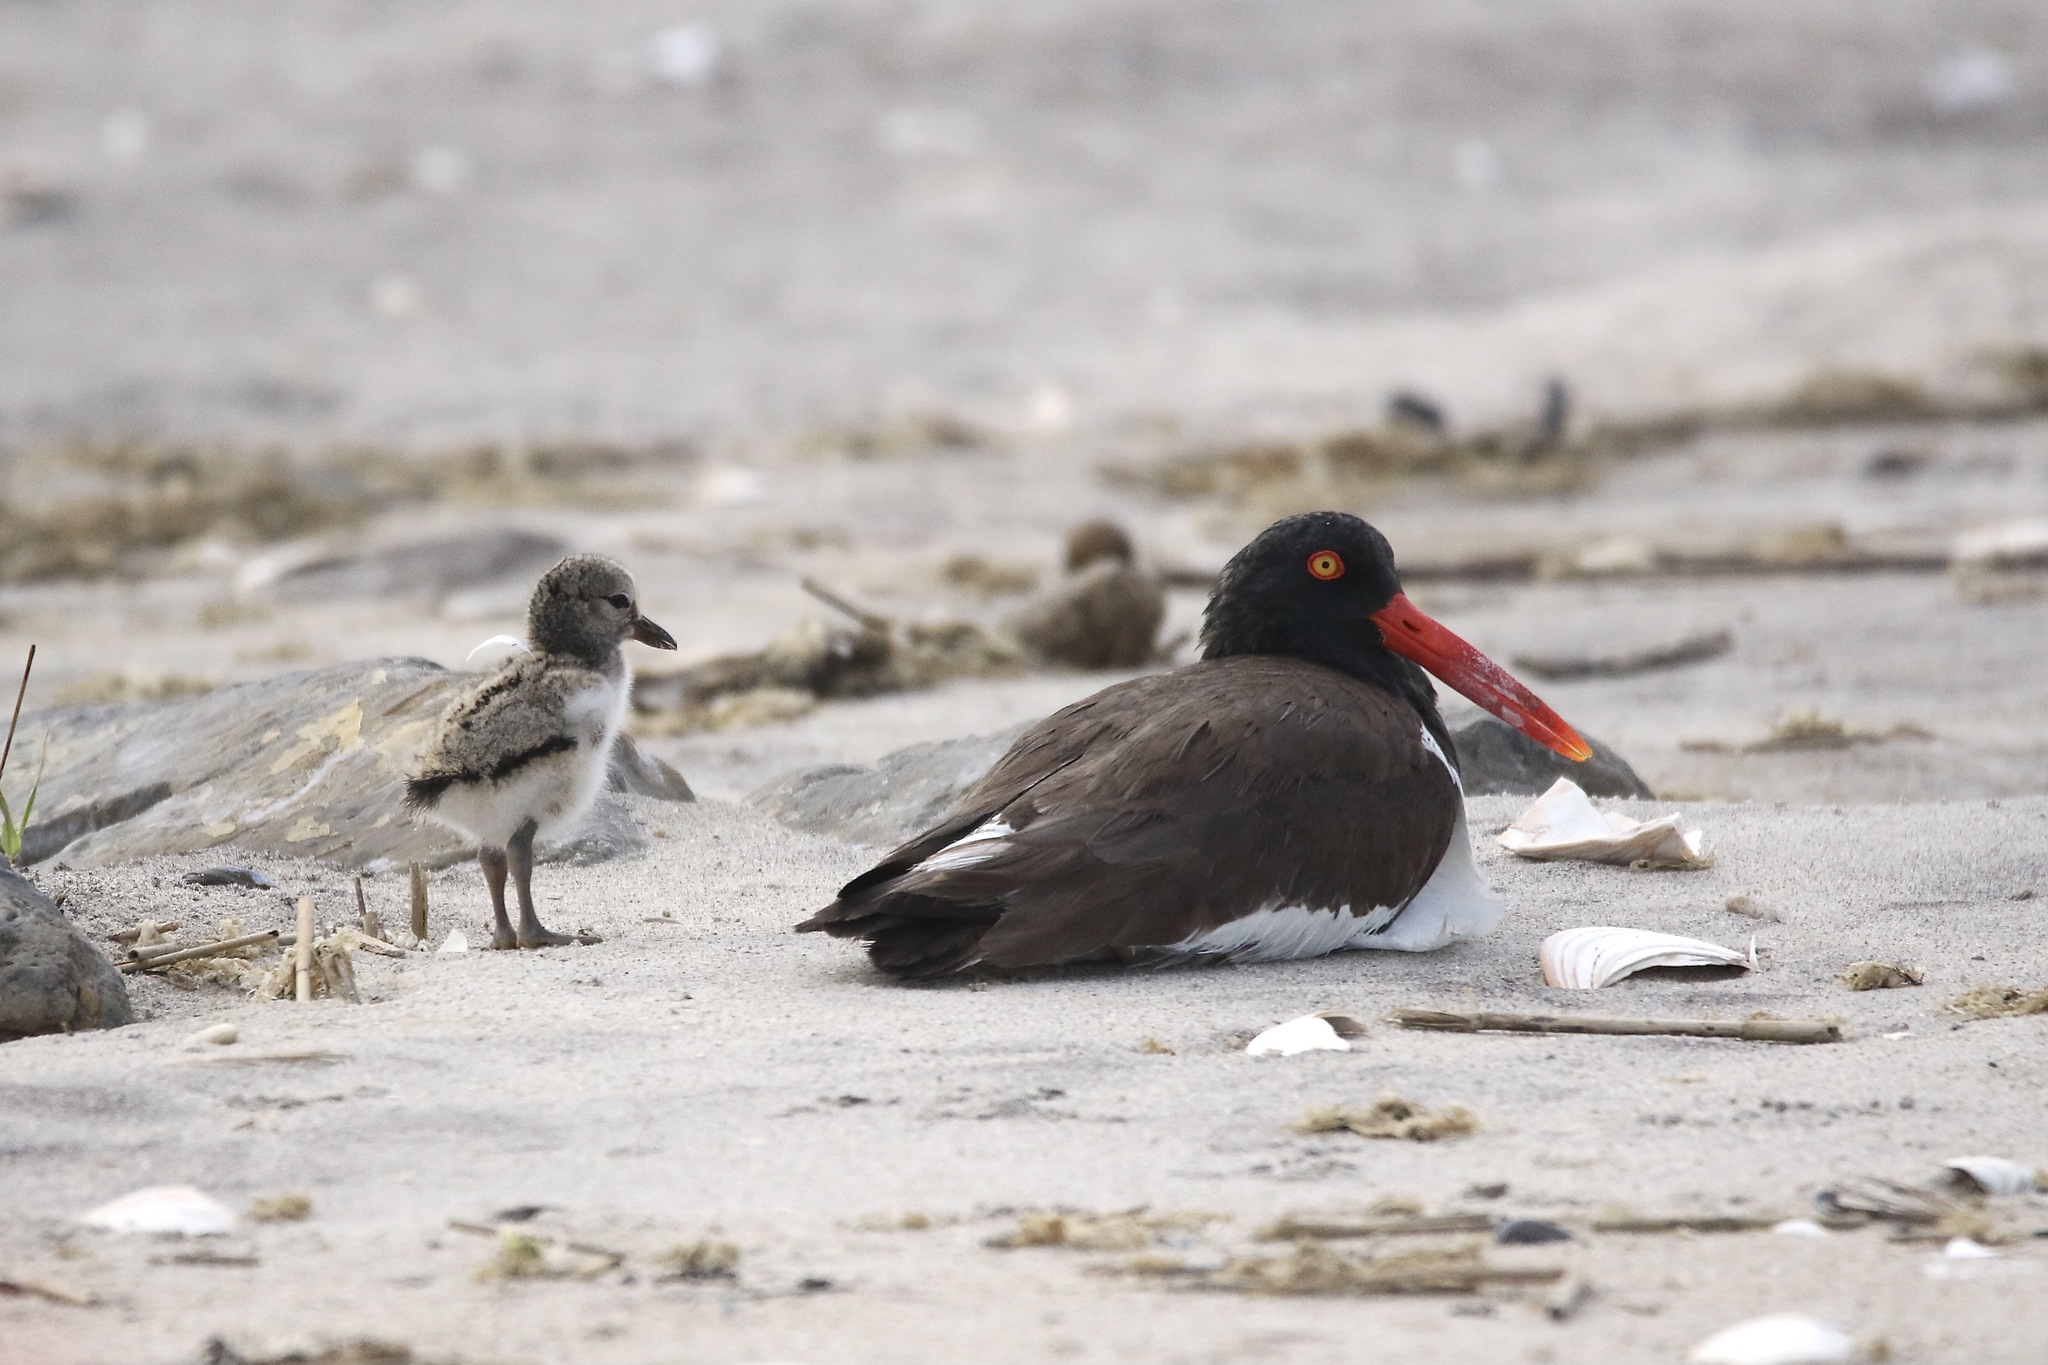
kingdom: Animalia
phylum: Chordata
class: Aves
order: Charadriiformes
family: Haematopodidae
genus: Haematopus
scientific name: Haematopus palliatus
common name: American oystercatcher
